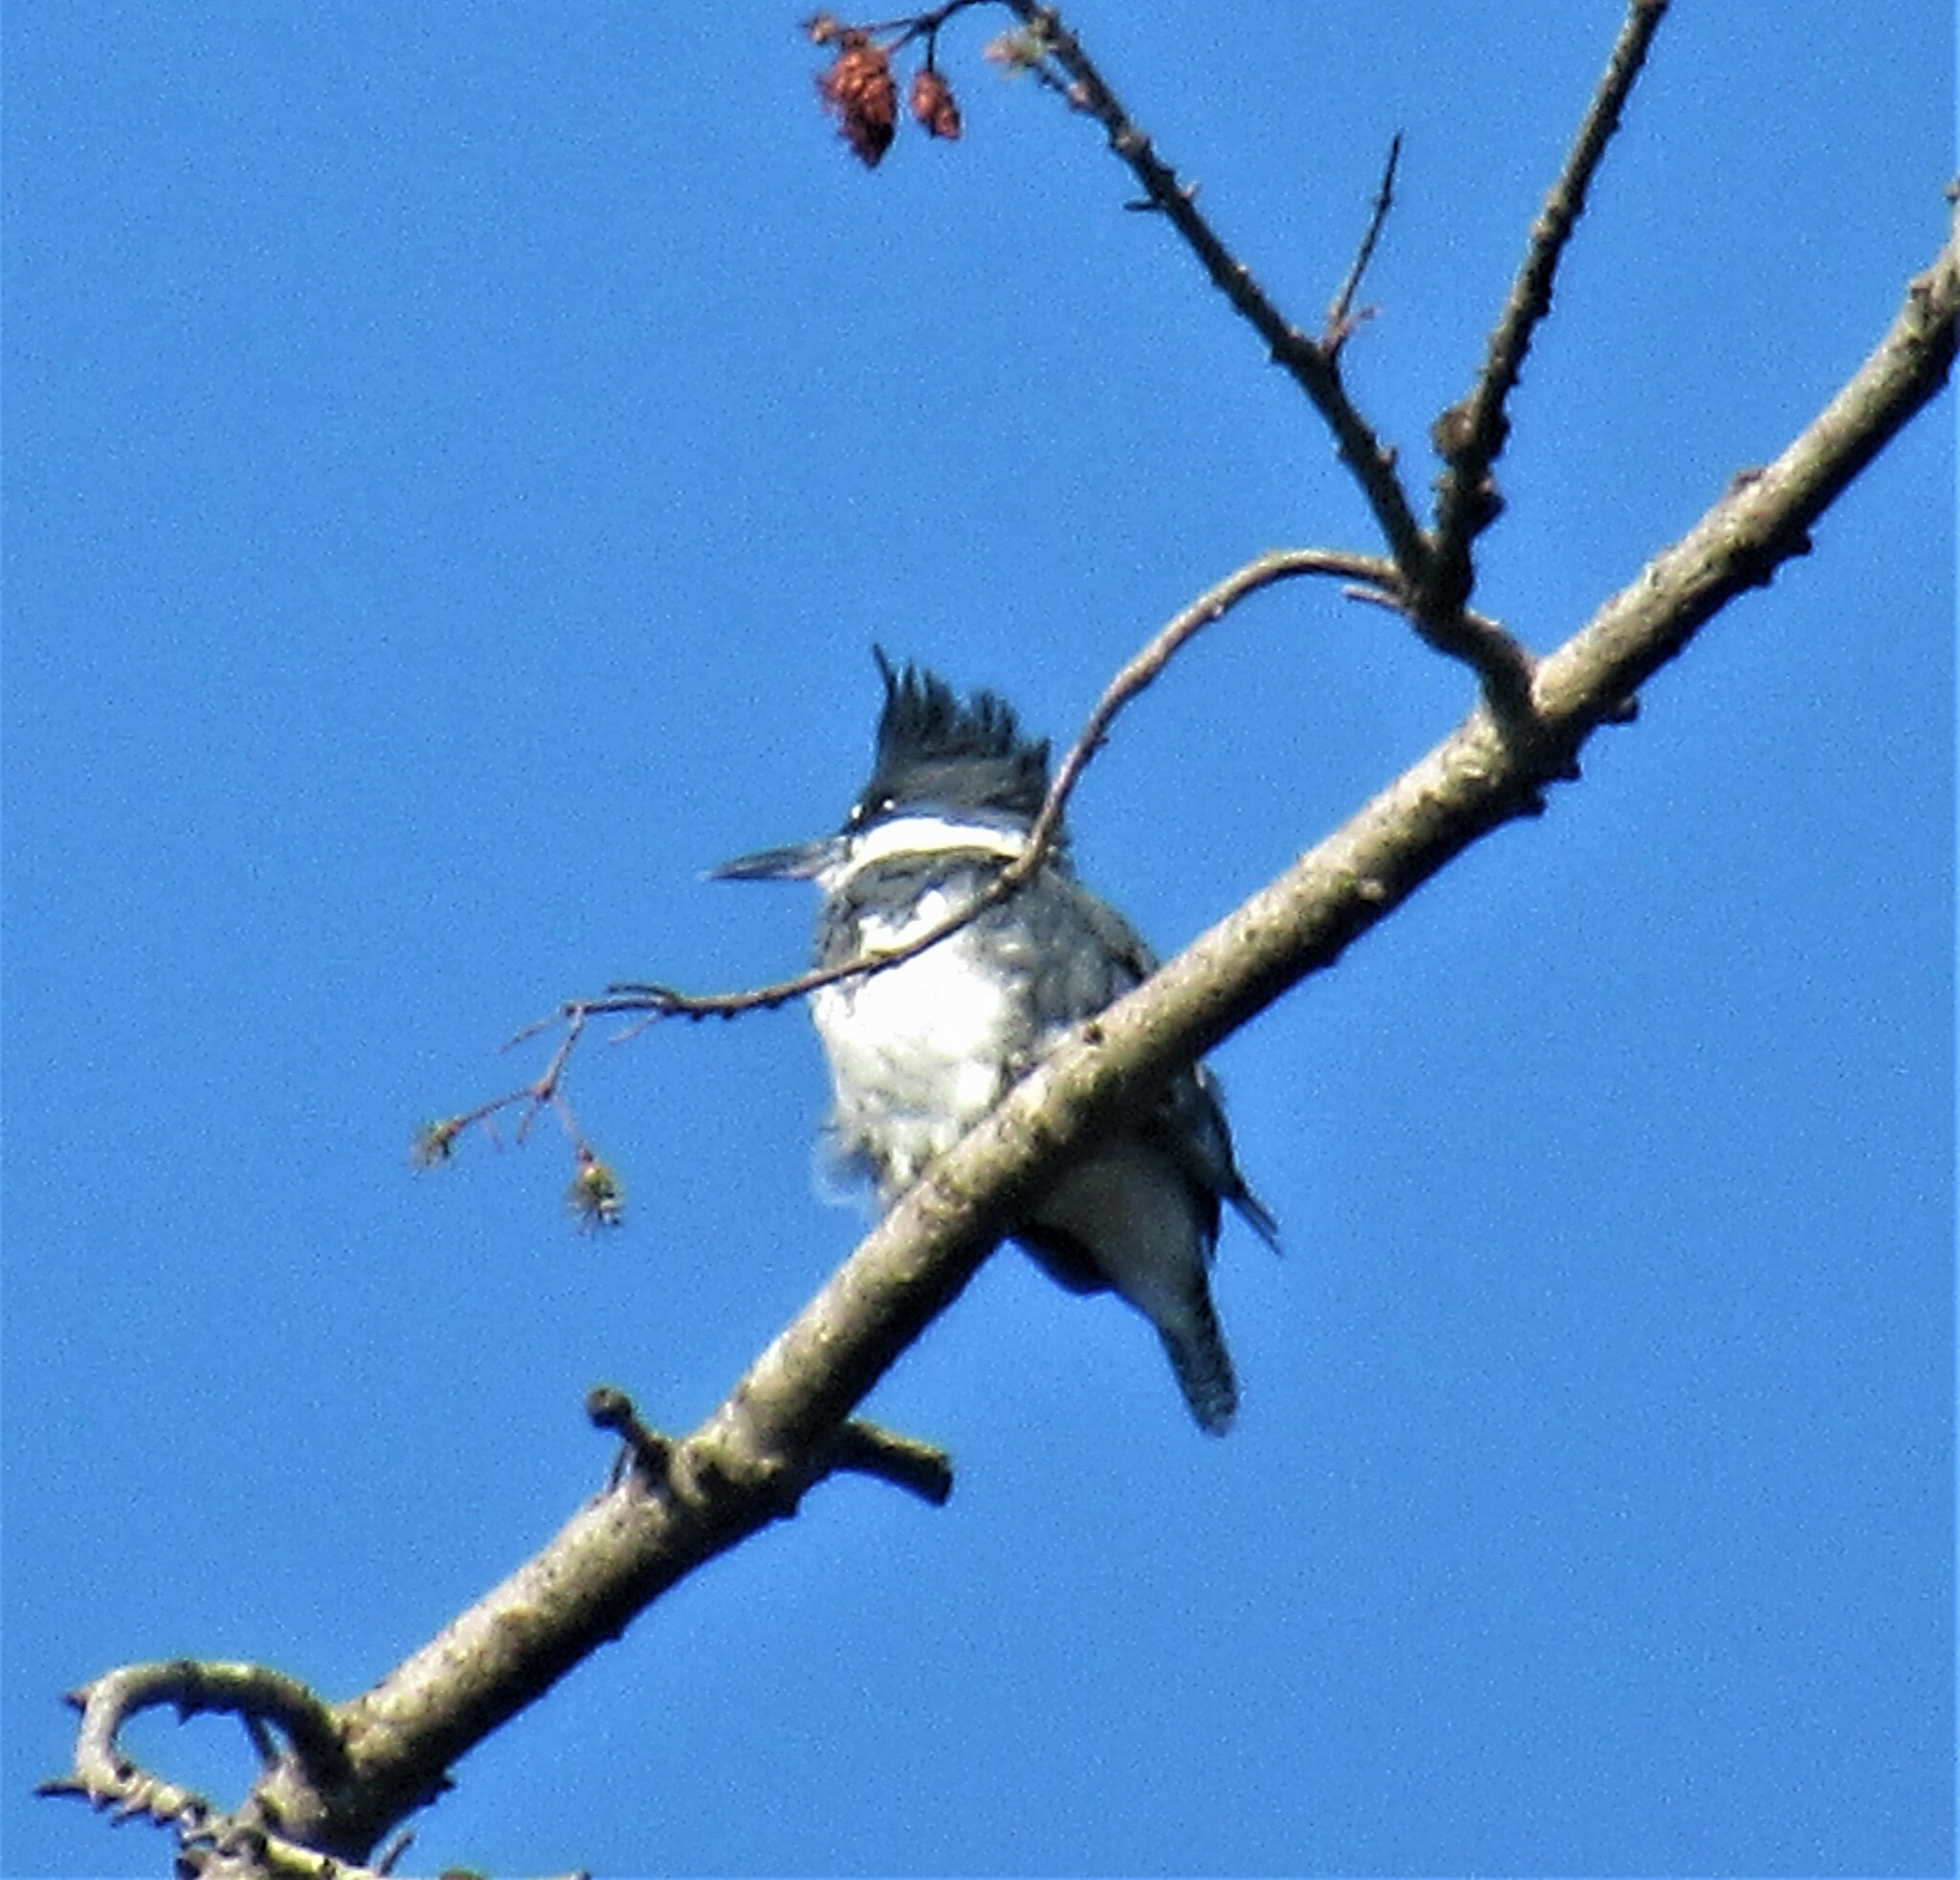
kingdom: Animalia
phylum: Chordata
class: Aves
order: Coraciiformes
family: Alcedinidae
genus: Megaceryle
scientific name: Megaceryle alcyon
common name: Belted kingfisher
